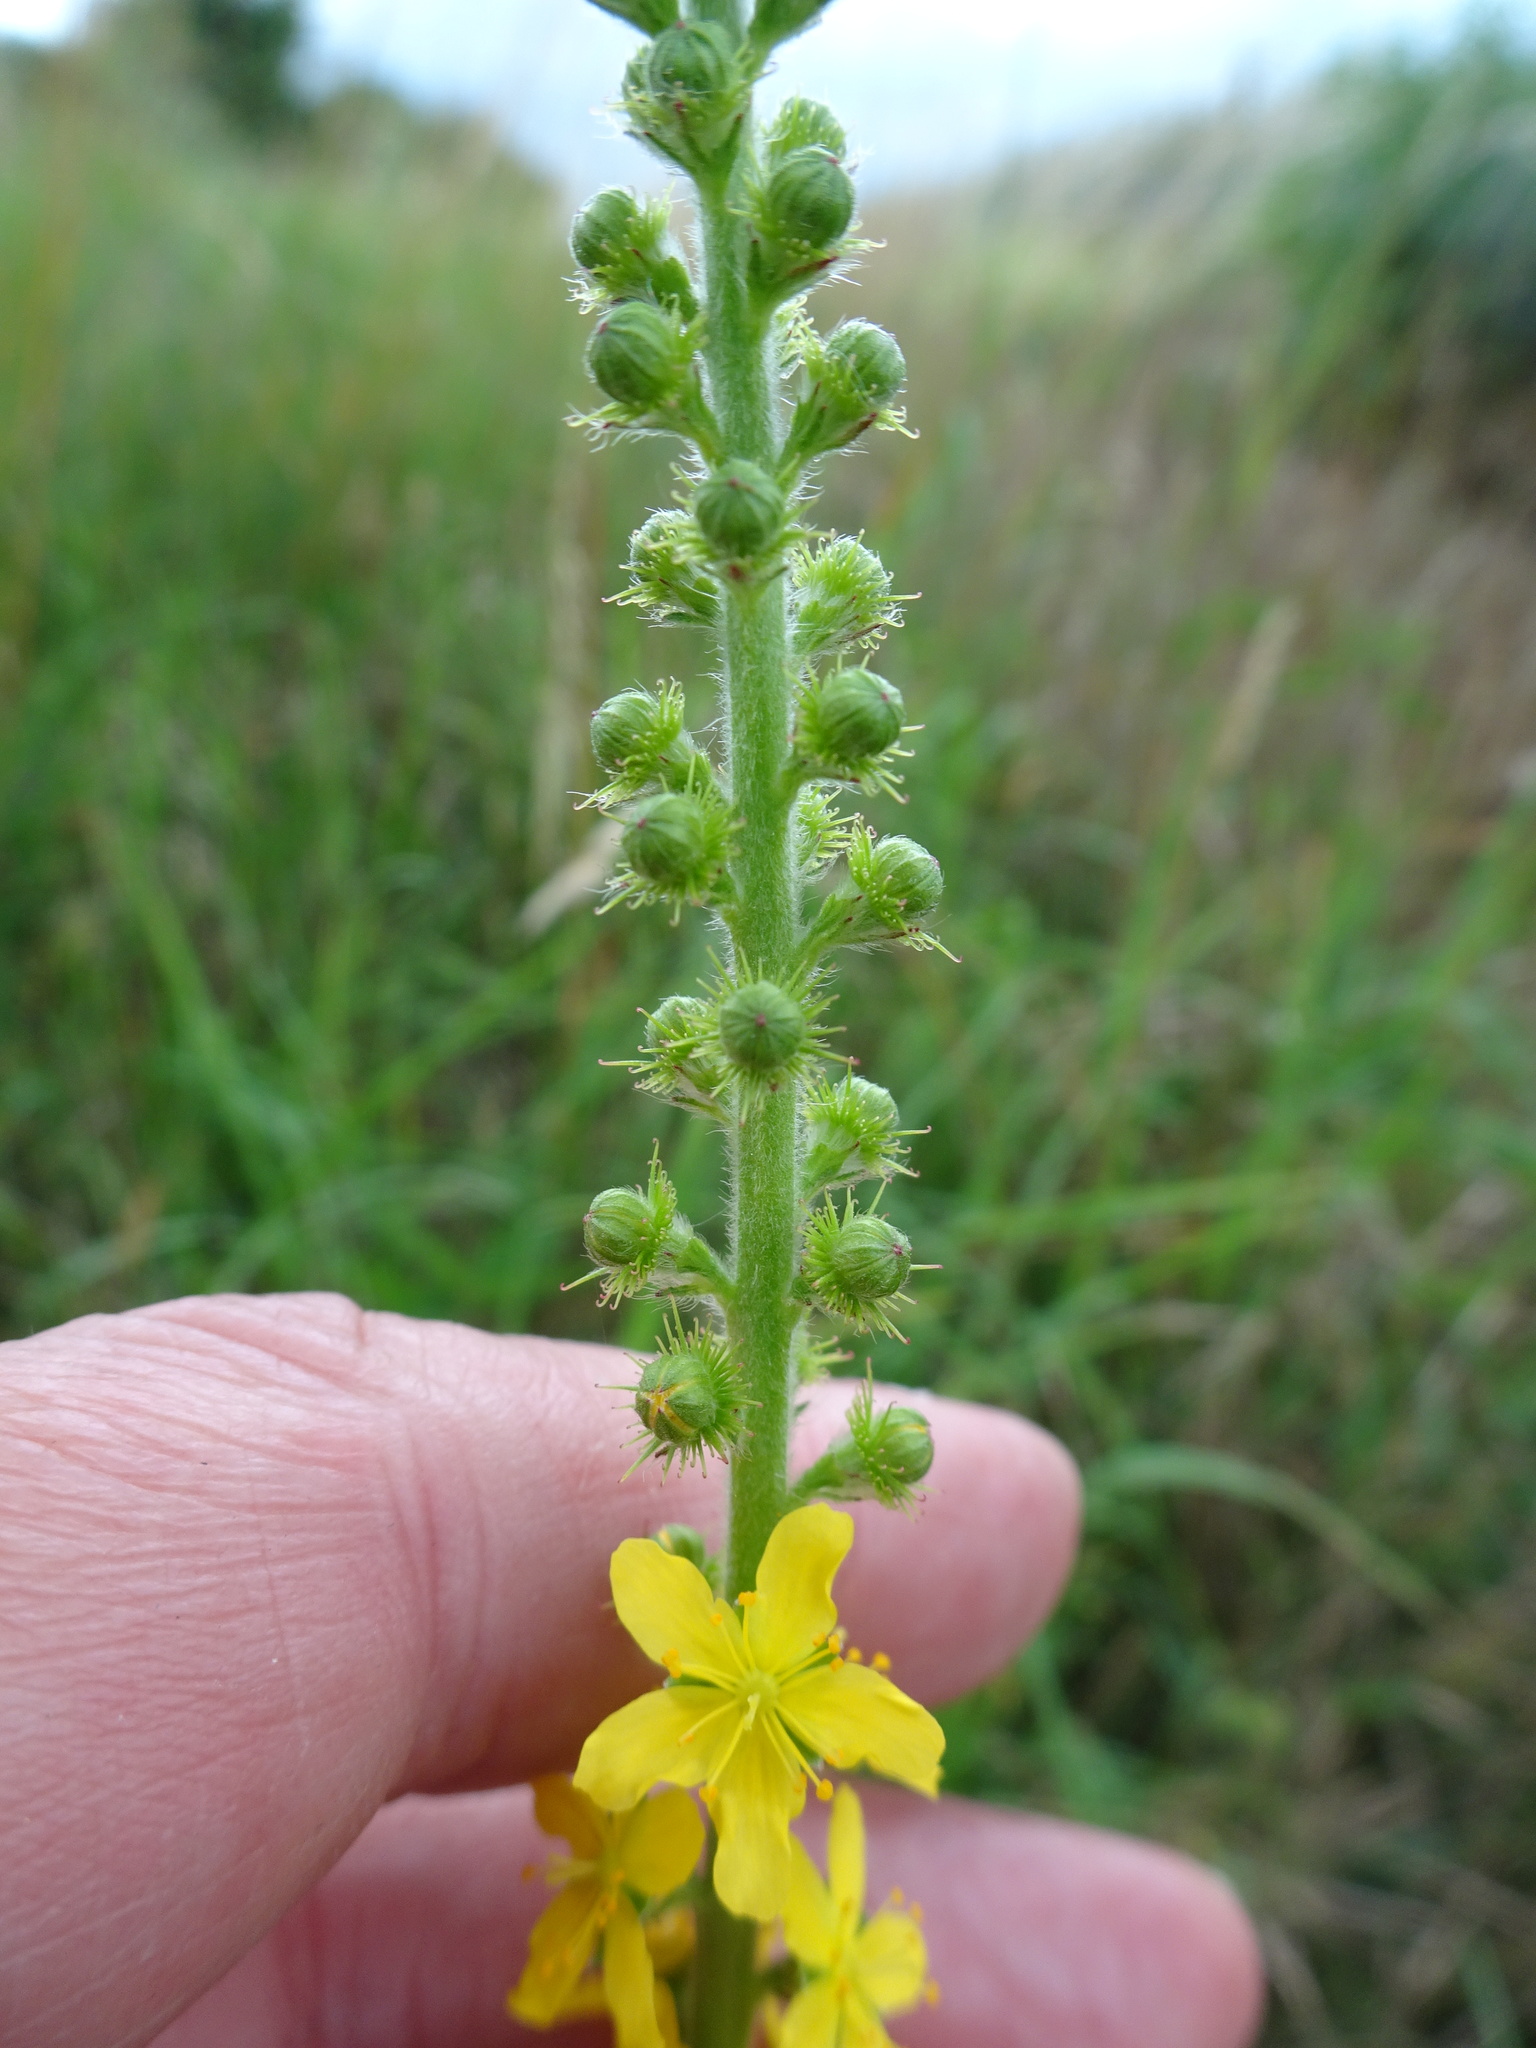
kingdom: Plantae
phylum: Tracheophyta
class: Magnoliopsida
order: Rosales
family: Rosaceae
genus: Agrimonia
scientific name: Agrimonia eupatoria
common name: Agrimony
